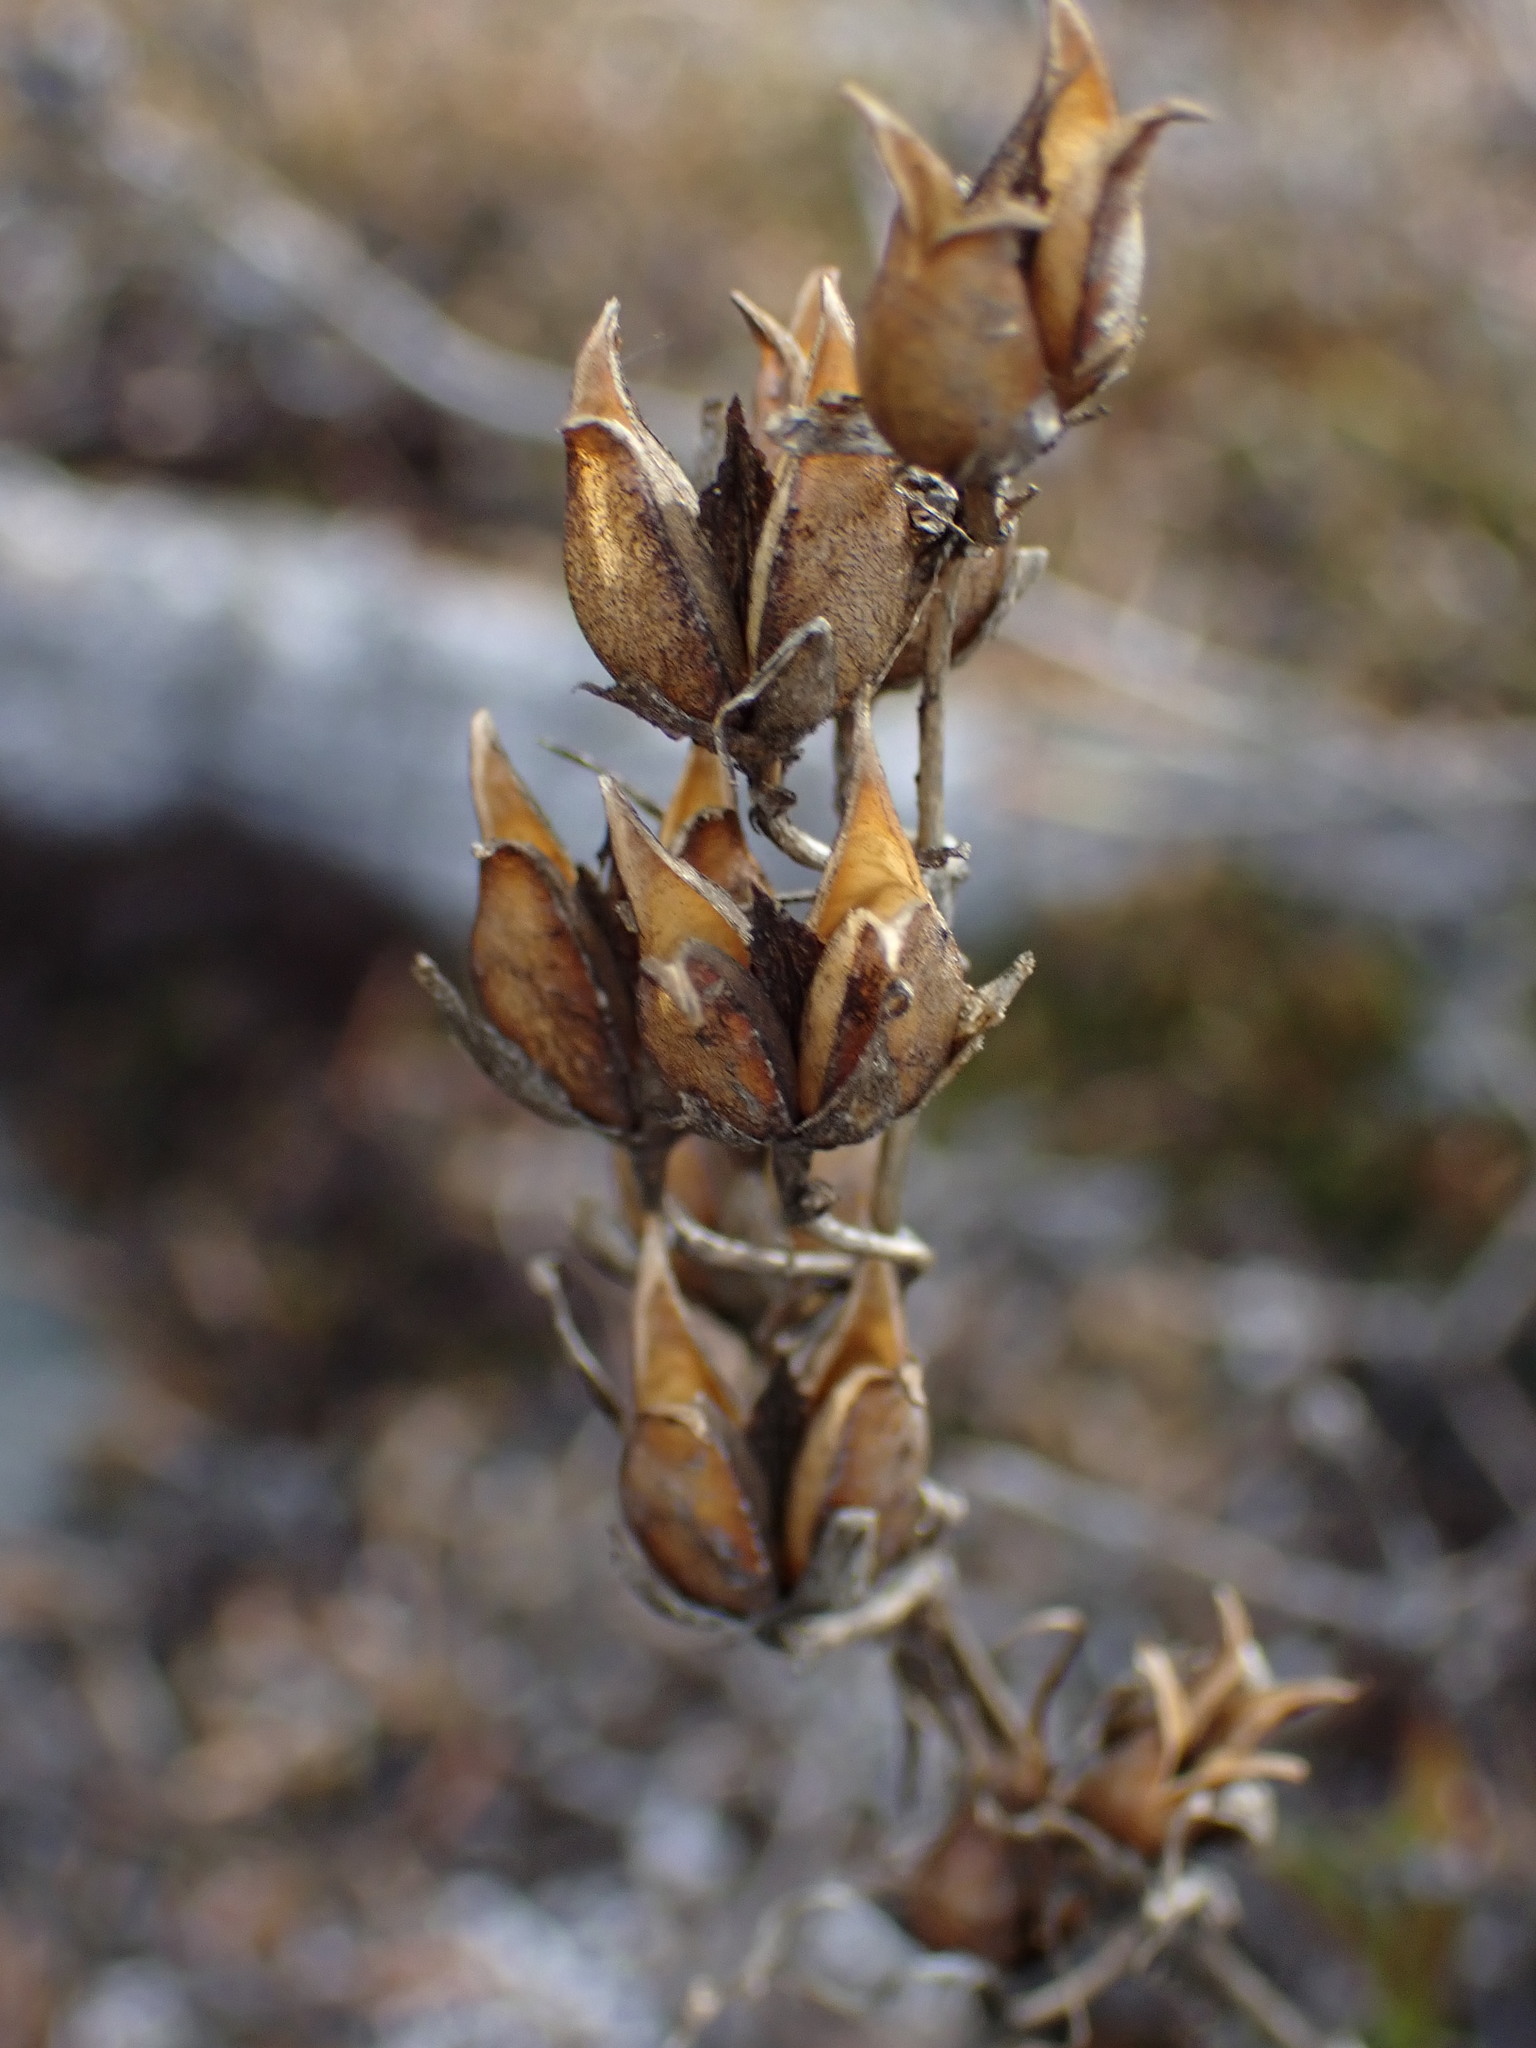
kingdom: Plantae
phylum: Tracheophyta
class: Magnoliopsida
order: Lamiales
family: Plantaginaceae
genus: Penstemon
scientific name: Penstemon fruticosus
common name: Bush penstemon
